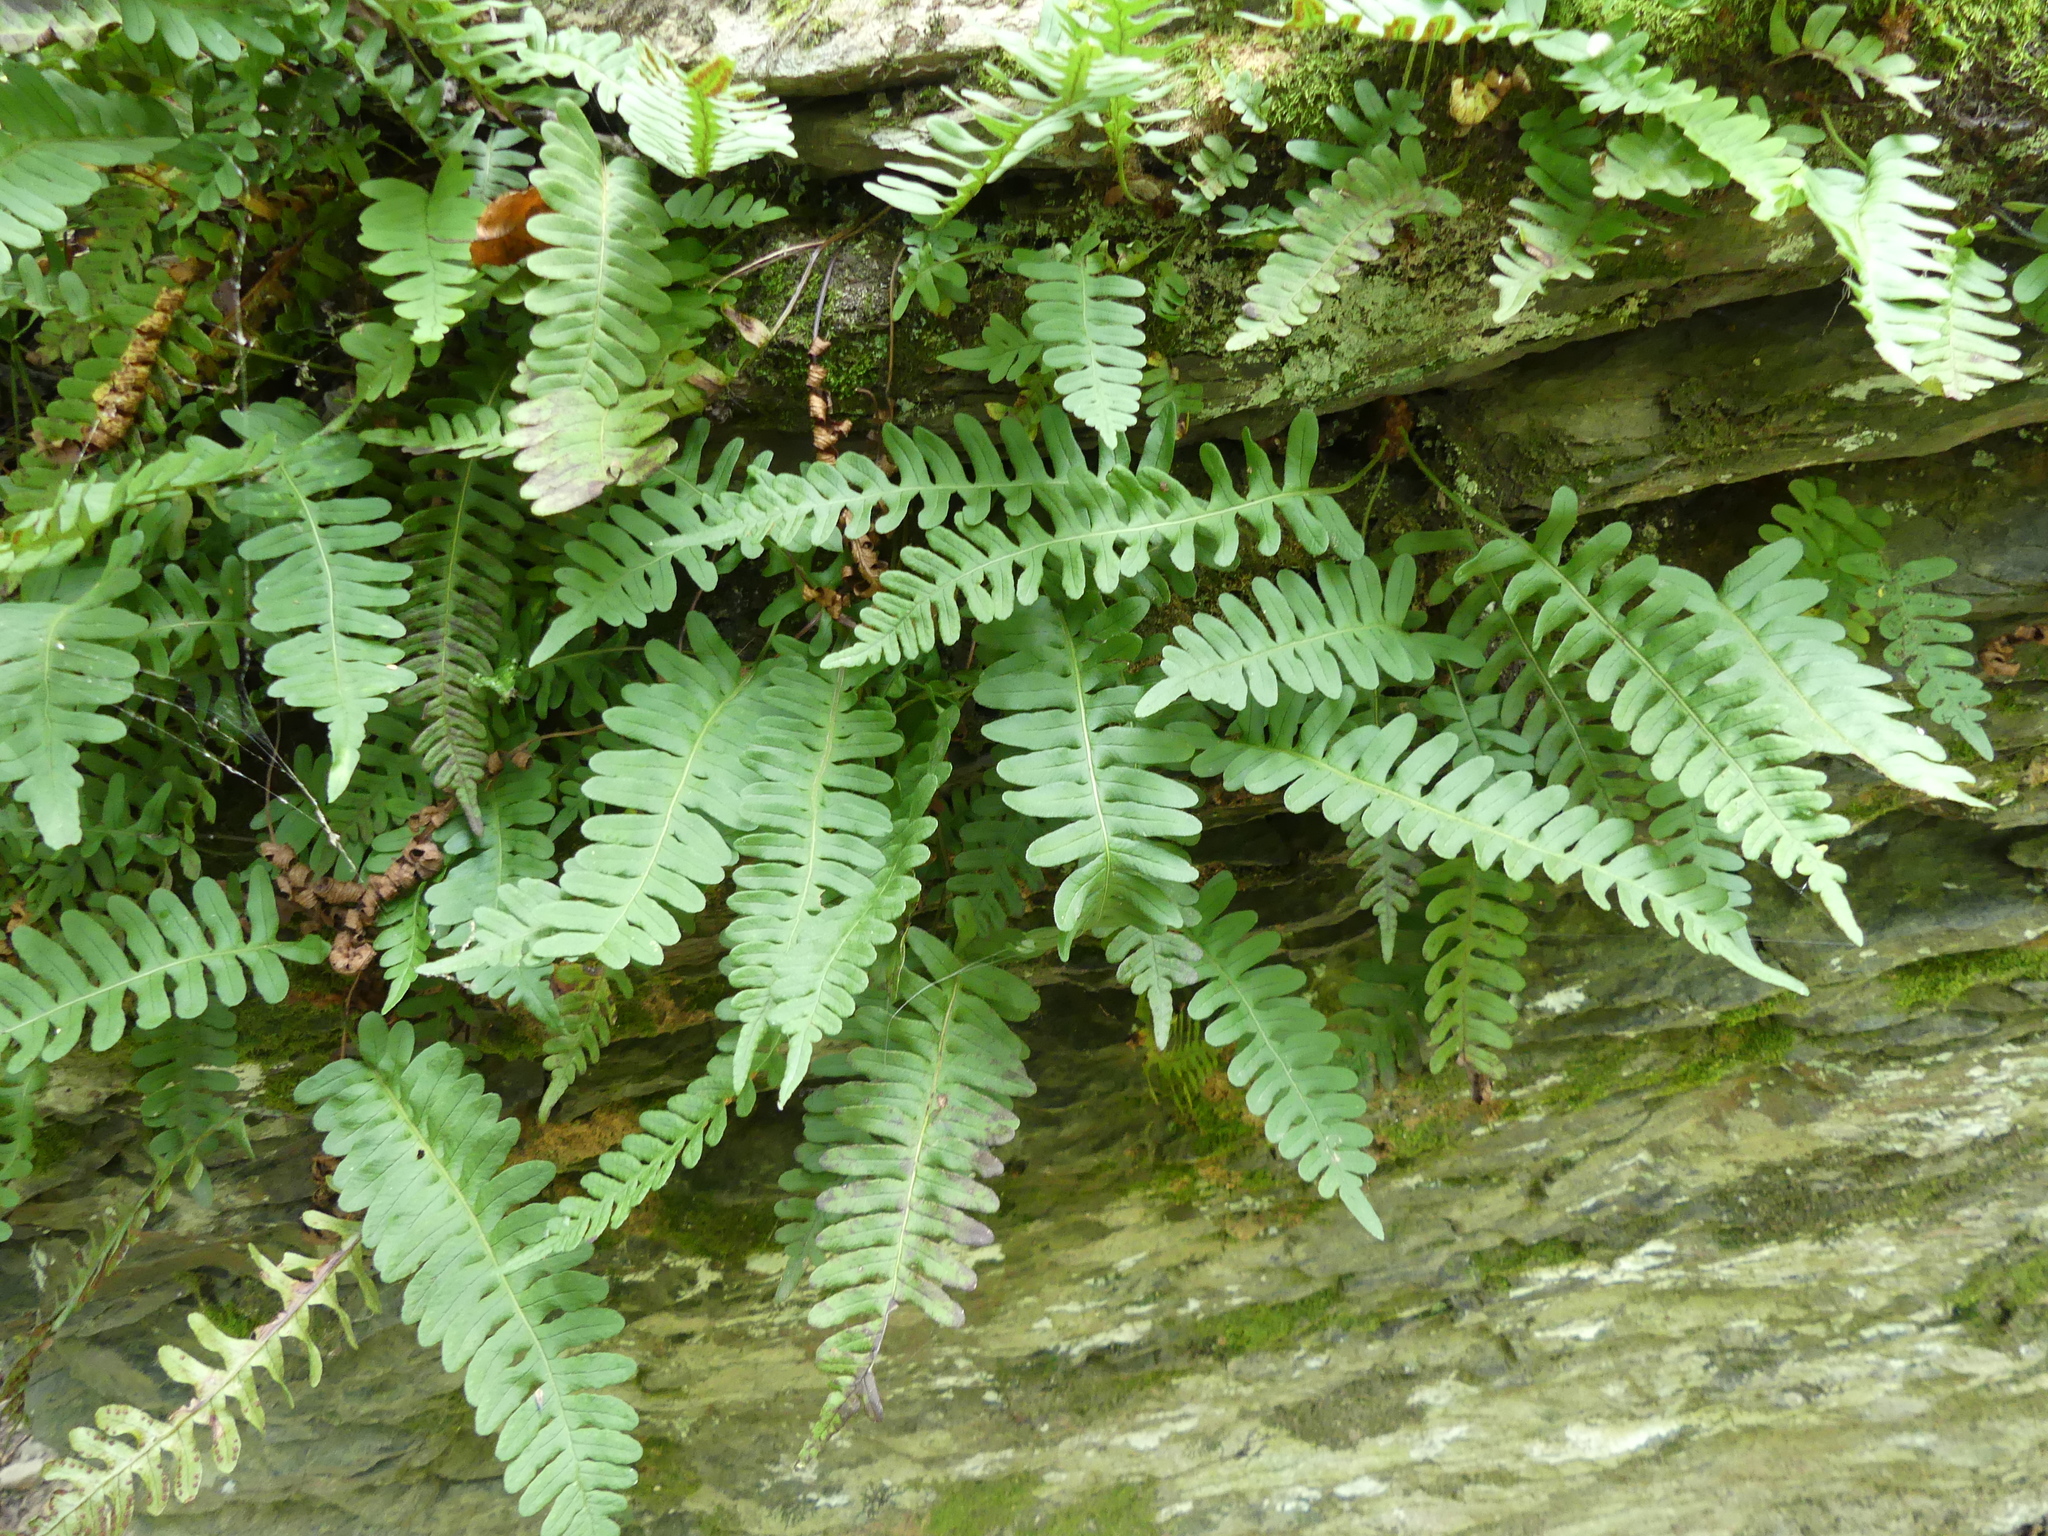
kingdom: Plantae
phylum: Tracheophyta
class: Polypodiopsida
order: Polypodiales
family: Polypodiaceae
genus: Polypodium
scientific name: Polypodium virginianum
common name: American wall fern
